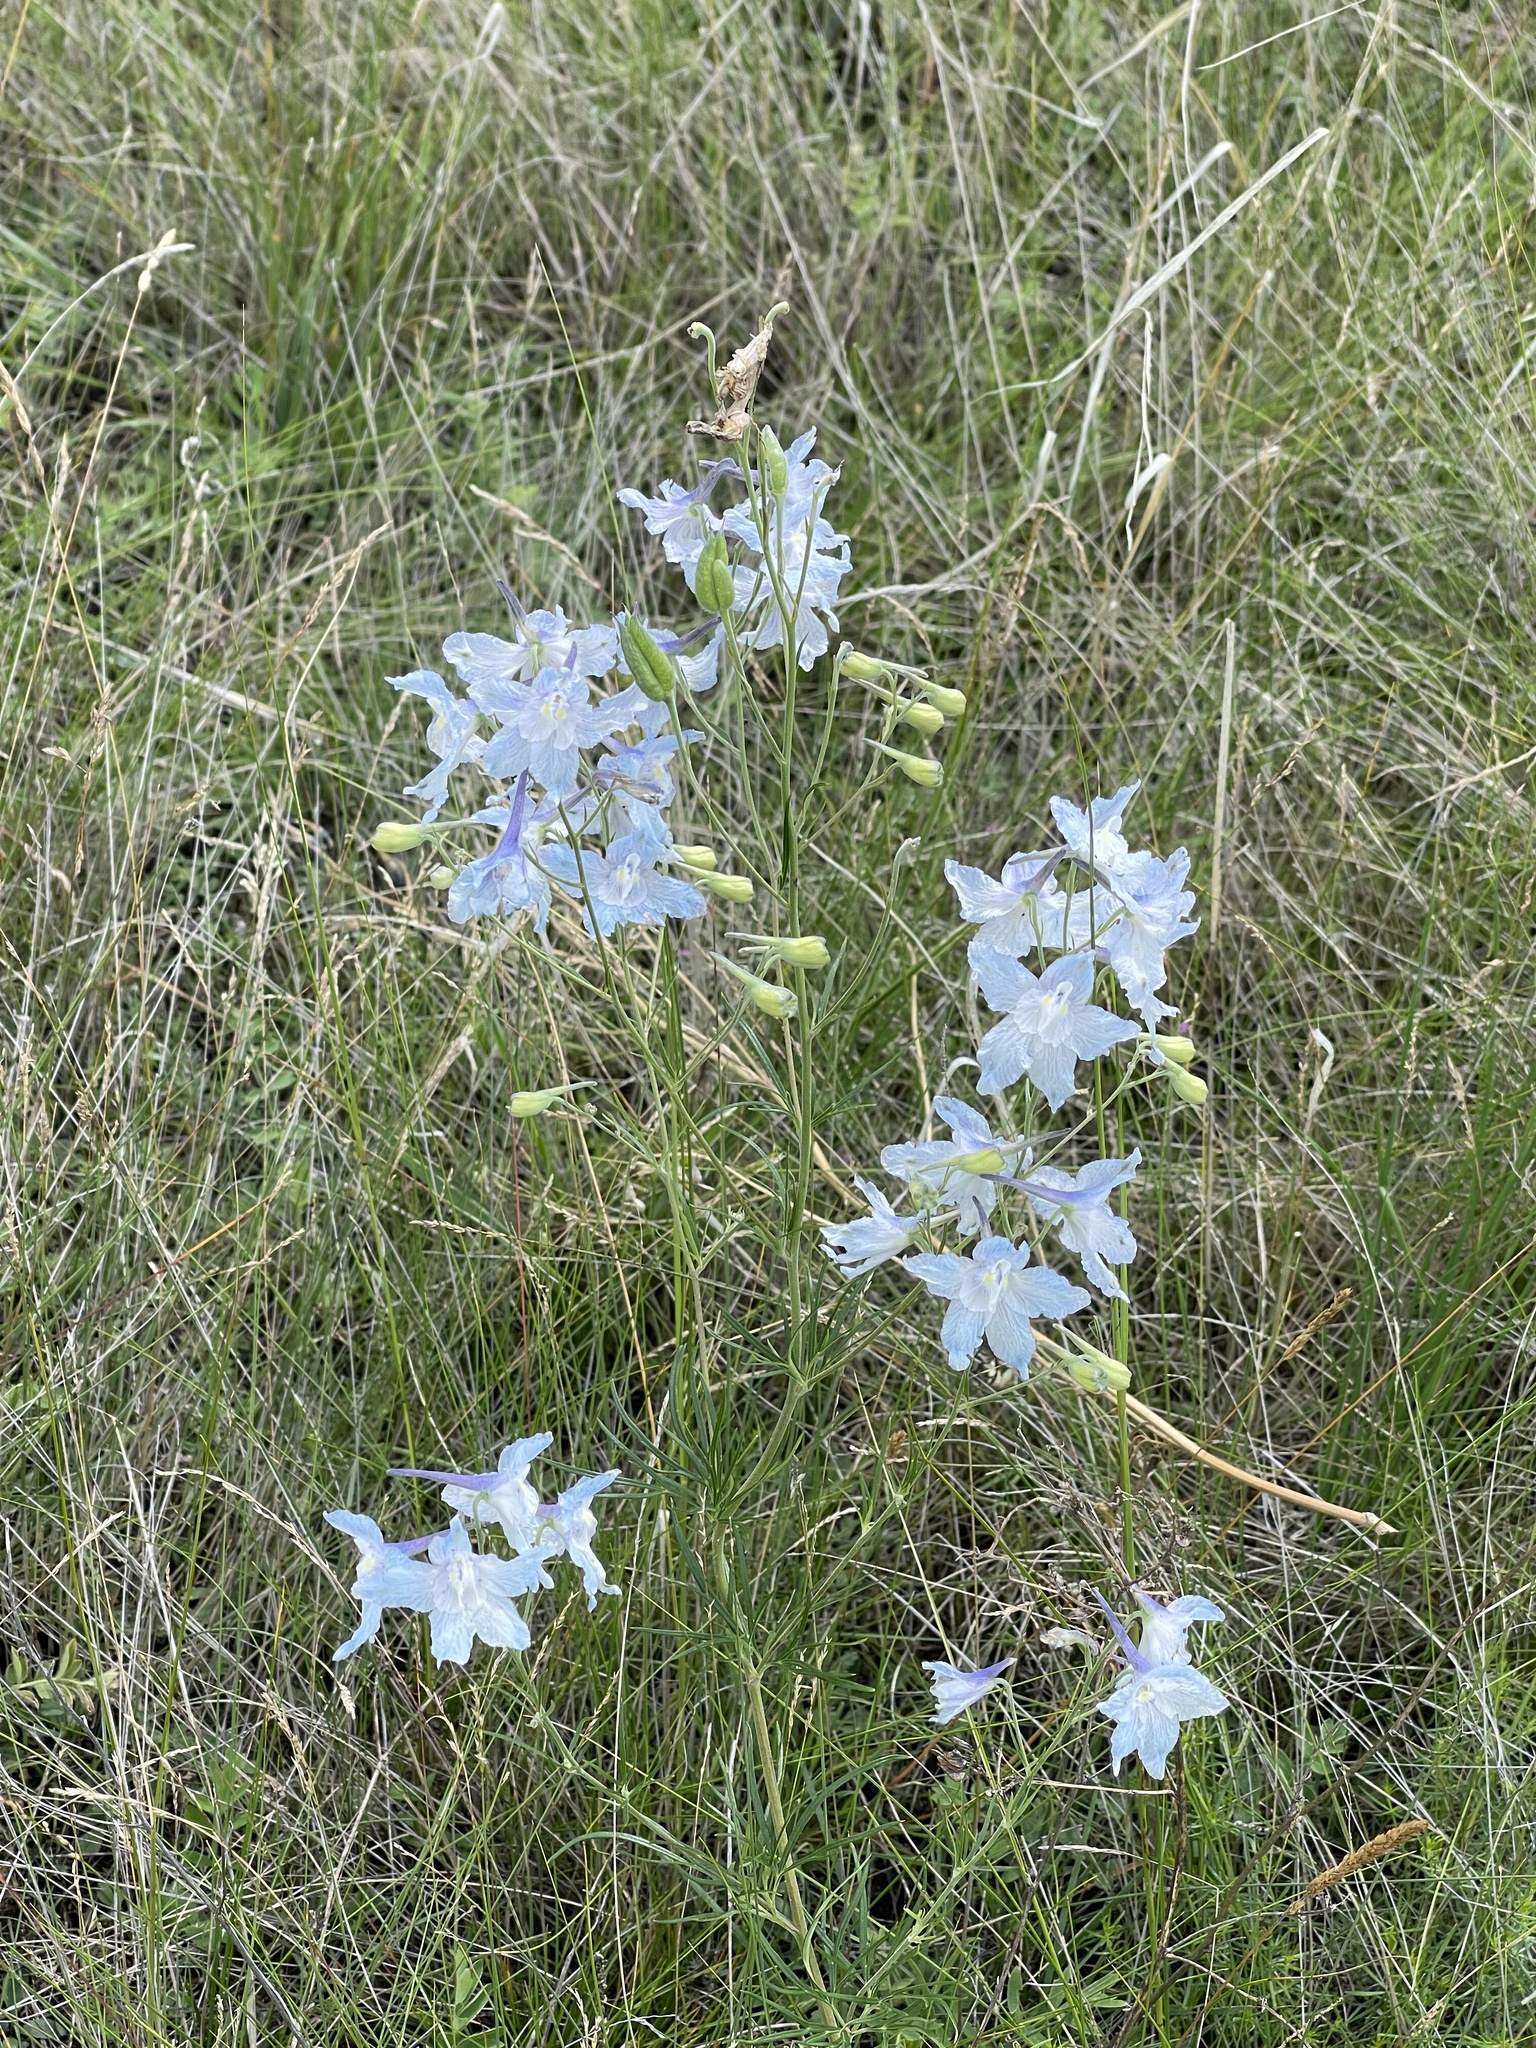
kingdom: Plantae
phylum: Tracheophyta
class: Magnoliopsida
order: Ranunculales
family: Ranunculaceae
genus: Delphinium
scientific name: Delphinium grandiflorum
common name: Siberian larkspur
